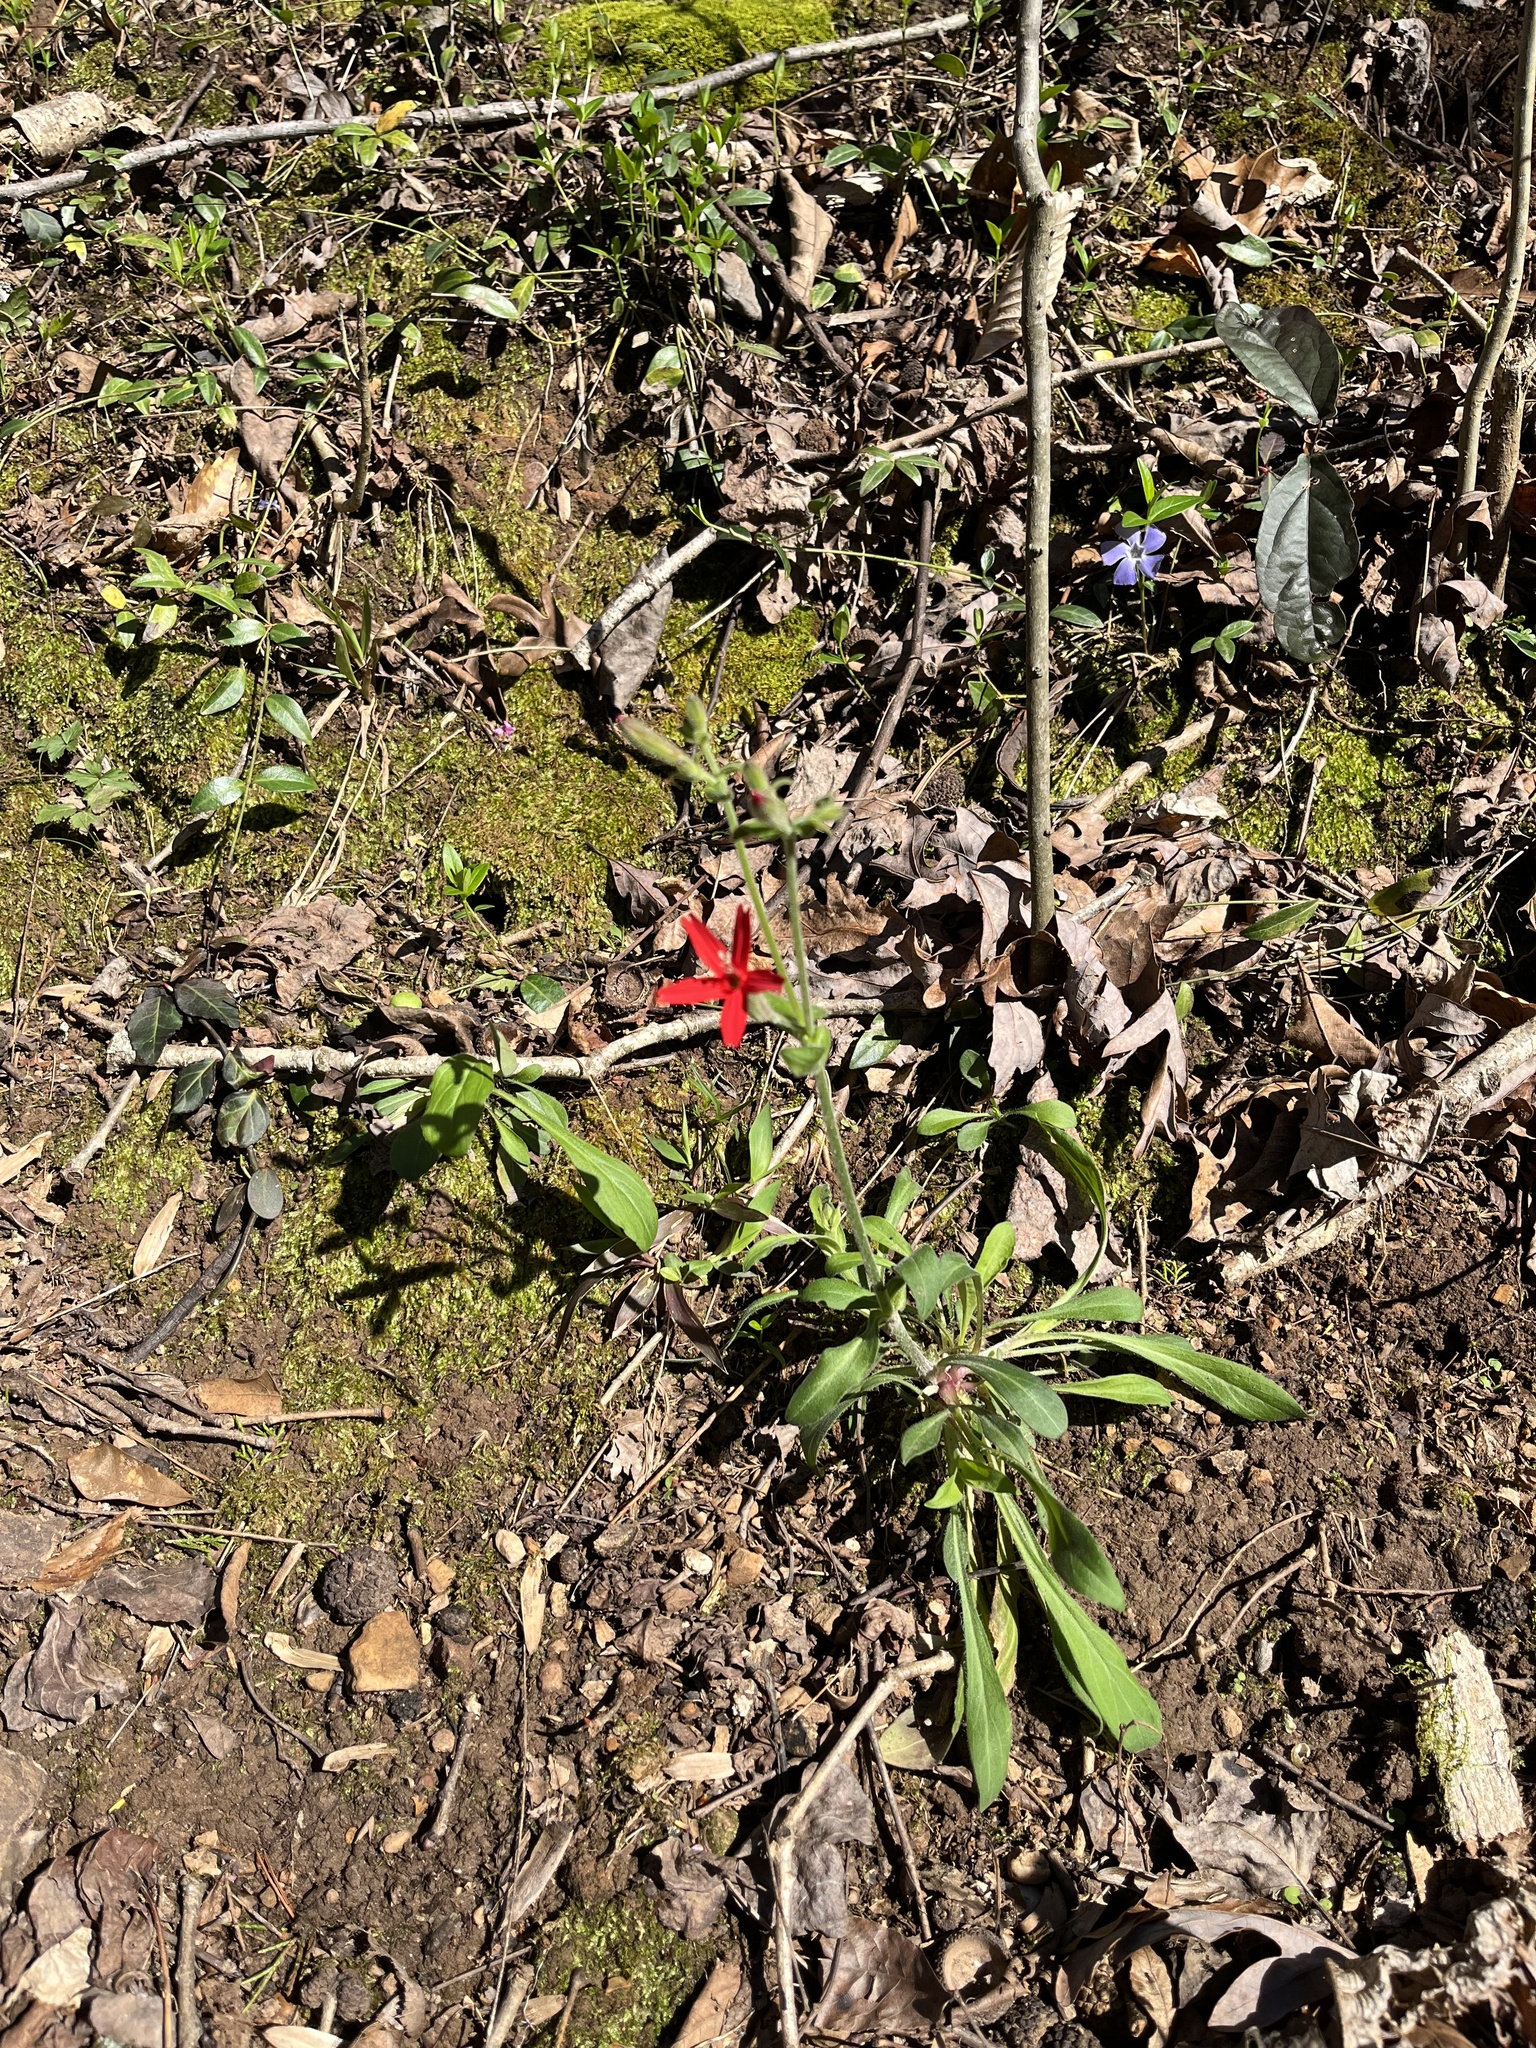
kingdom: Plantae
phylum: Tracheophyta
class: Magnoliopsida
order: Caryophyllales
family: Caryophyllaceae
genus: Silene
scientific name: Silene virginica
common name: Fire-pink
